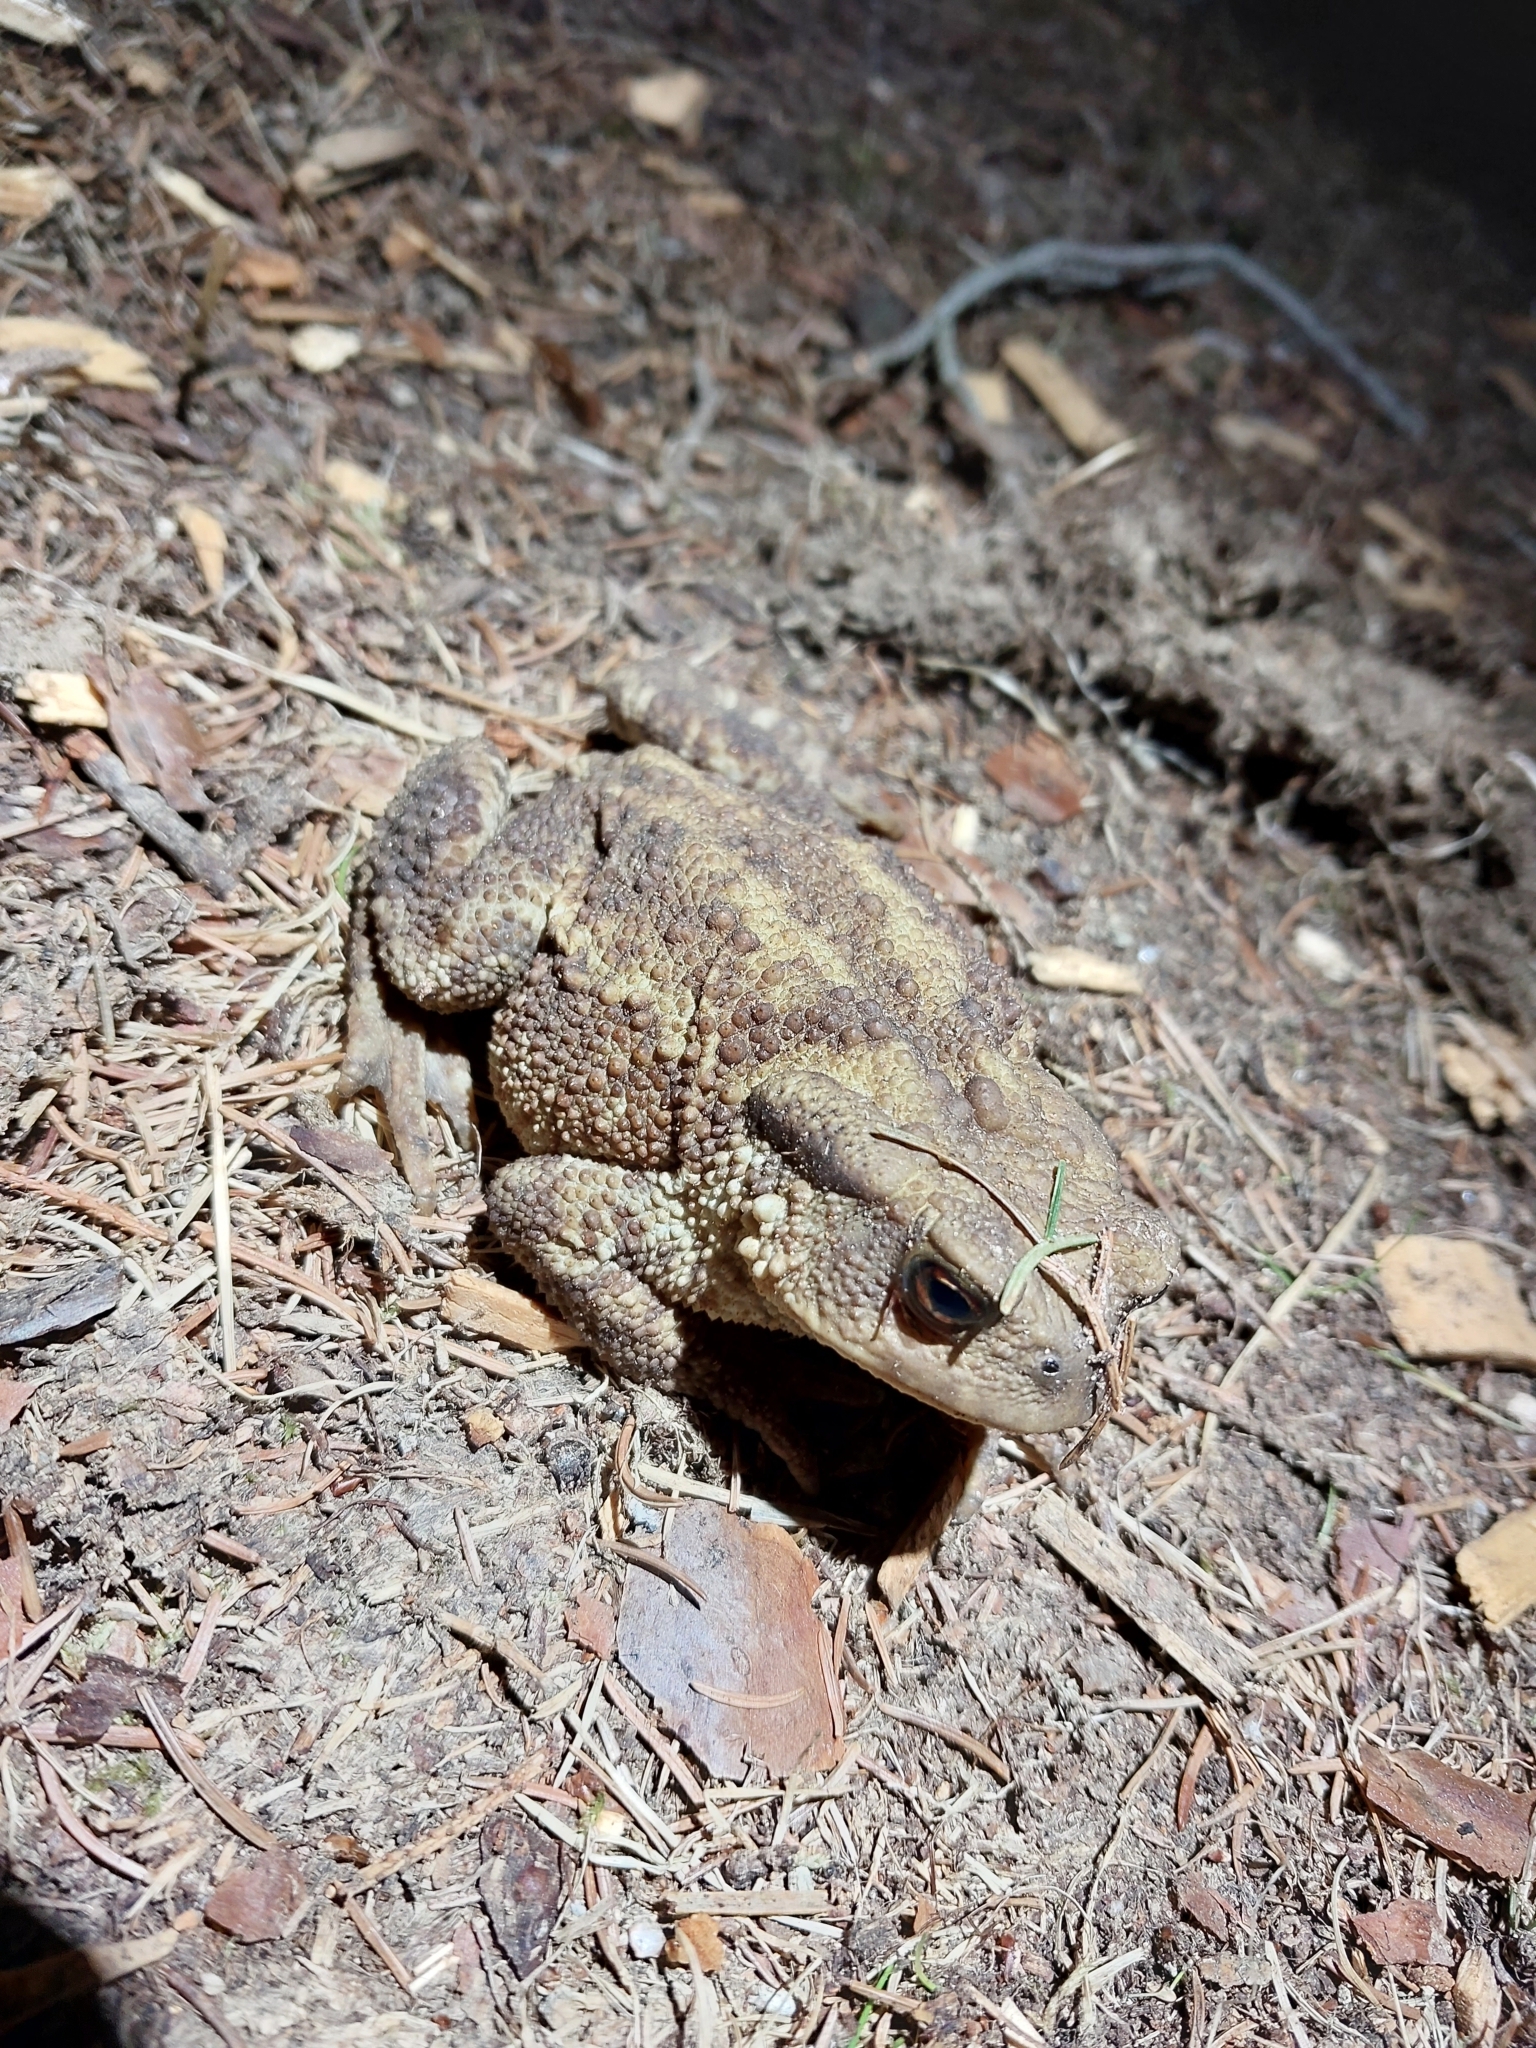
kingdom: Animalia
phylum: Chordata
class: Amphibia
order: Anura
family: Bufonidae
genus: Bufo
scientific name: Bufo bufo
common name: Common toad
